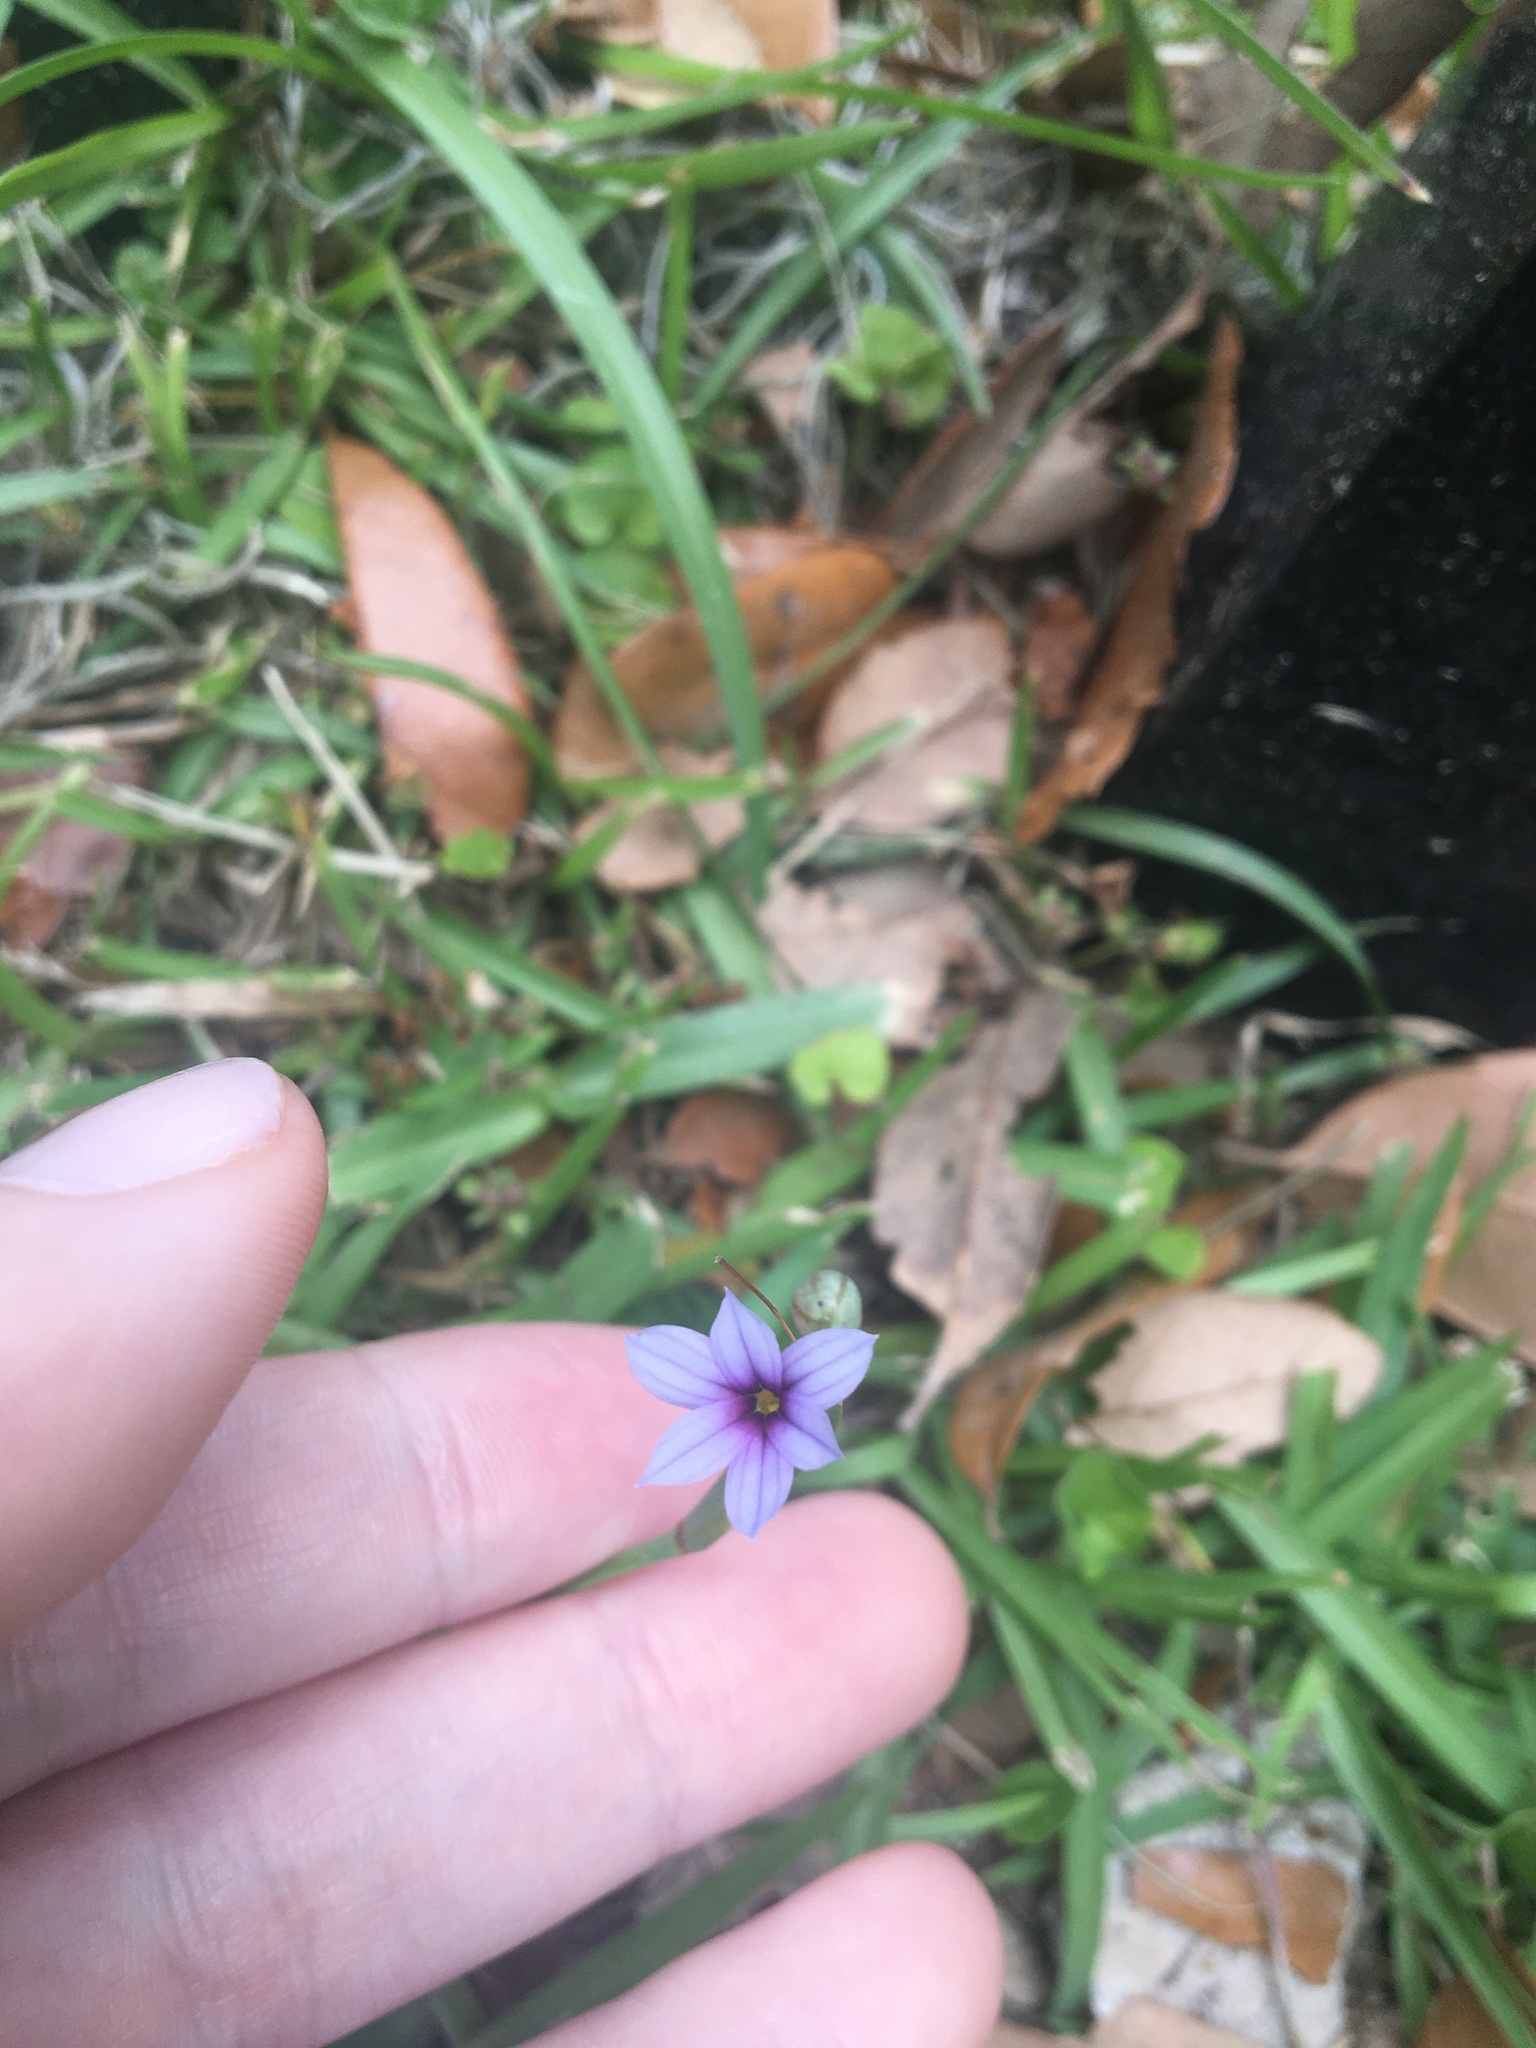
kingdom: Plantae
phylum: Tracheophyta
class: Liliopsida
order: Asparagales
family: Iridaceae
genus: Sisyrinchium
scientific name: Sisyrinchium micranthum
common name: Bermuda pigroot
